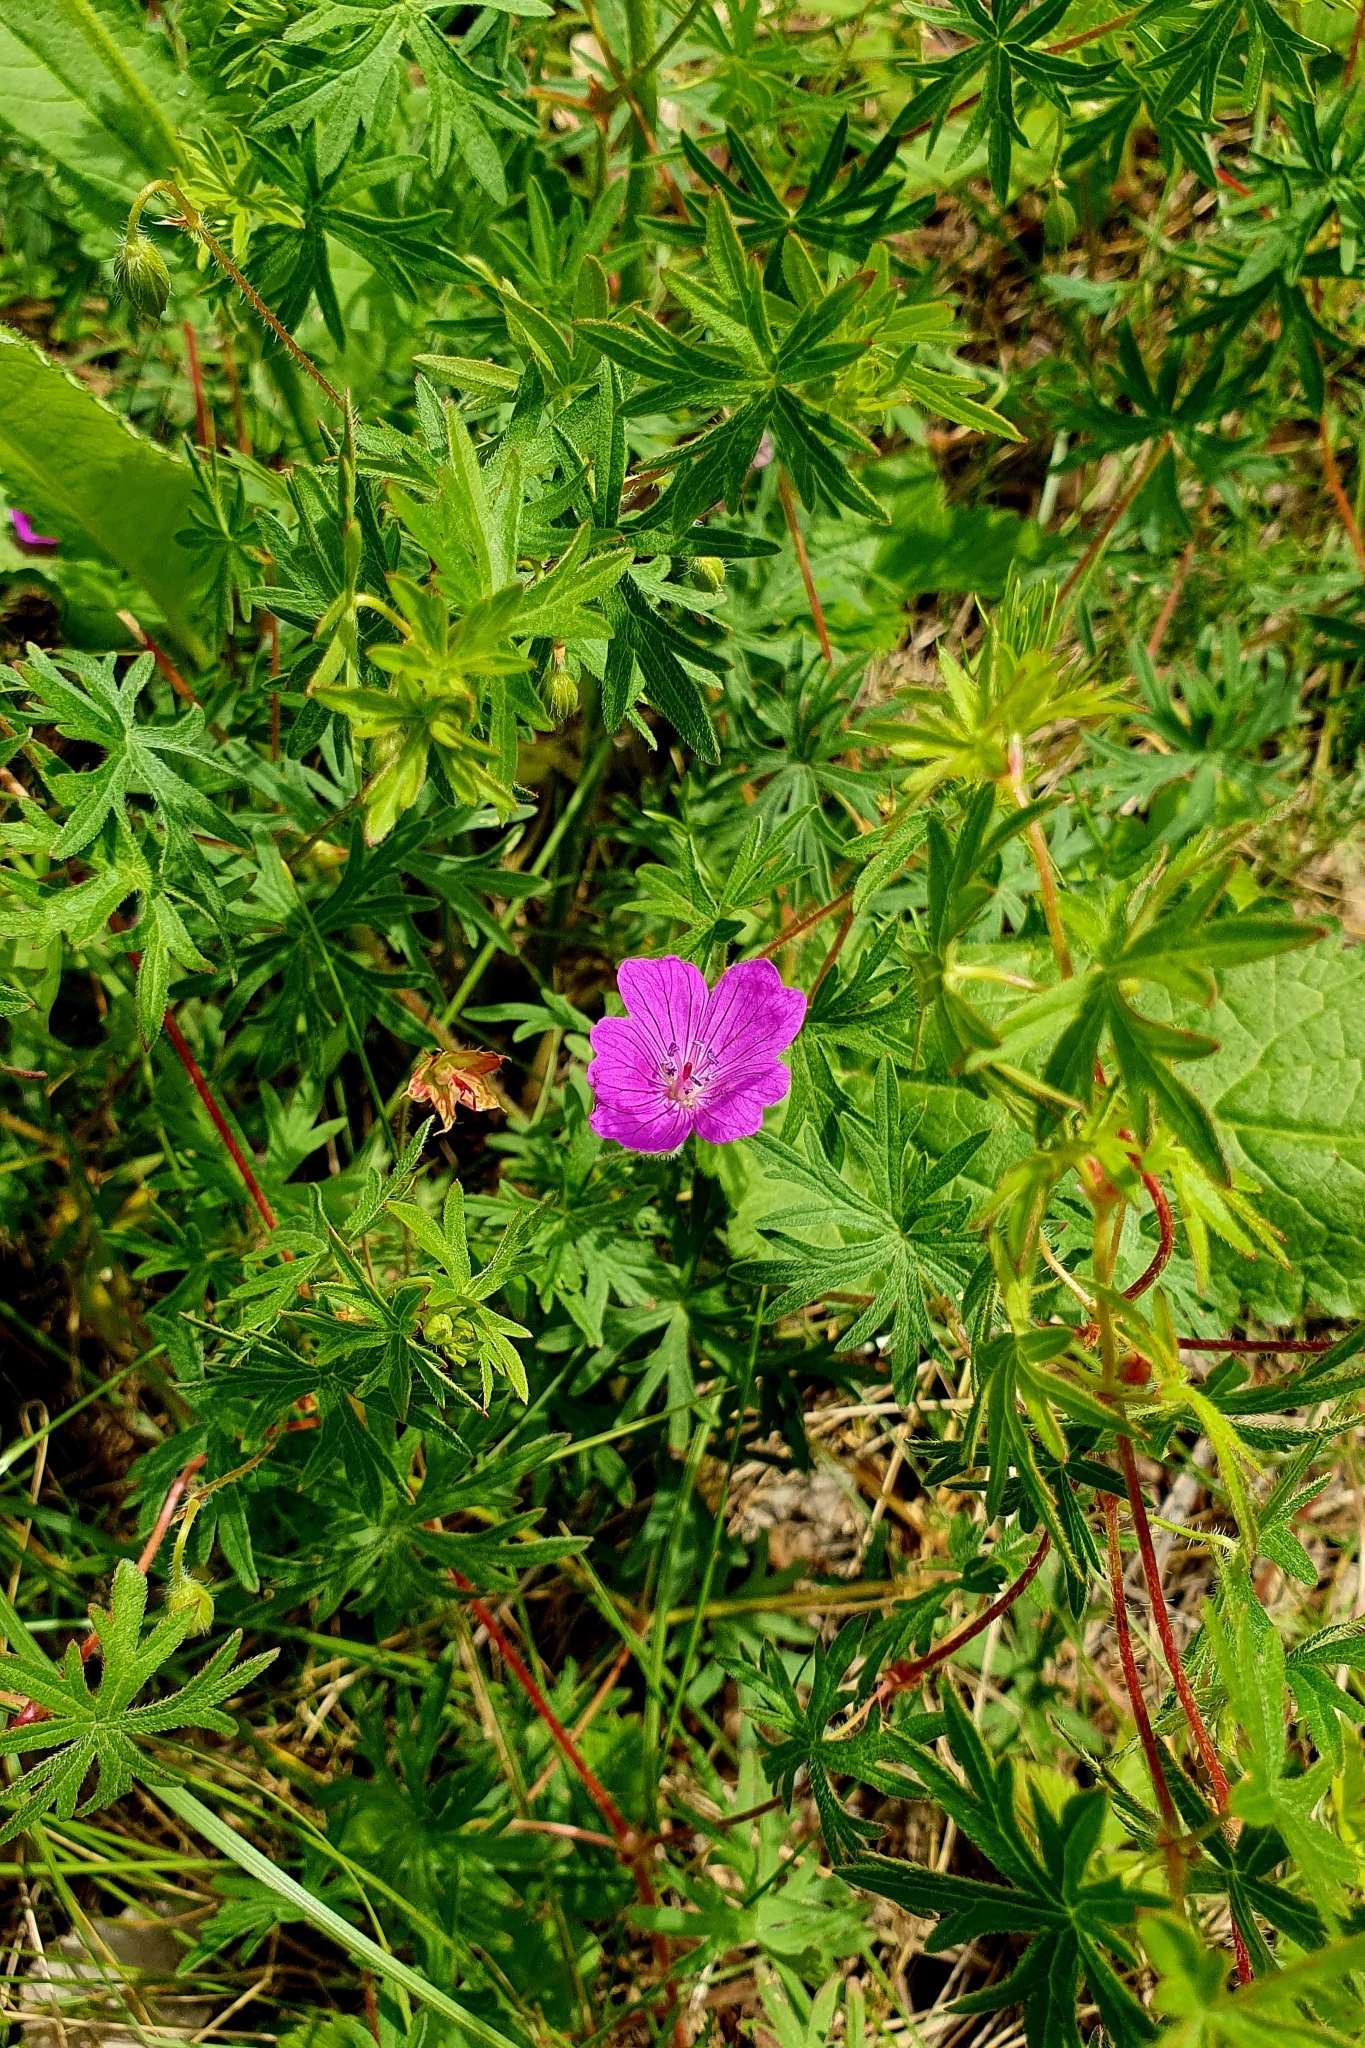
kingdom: Plantae
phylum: Tracheophyta
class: Magnoliopsida
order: Geraniales
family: Geraniaceae
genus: Geranium
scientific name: Geranium sanguineum
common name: Bloody crane's-bill
